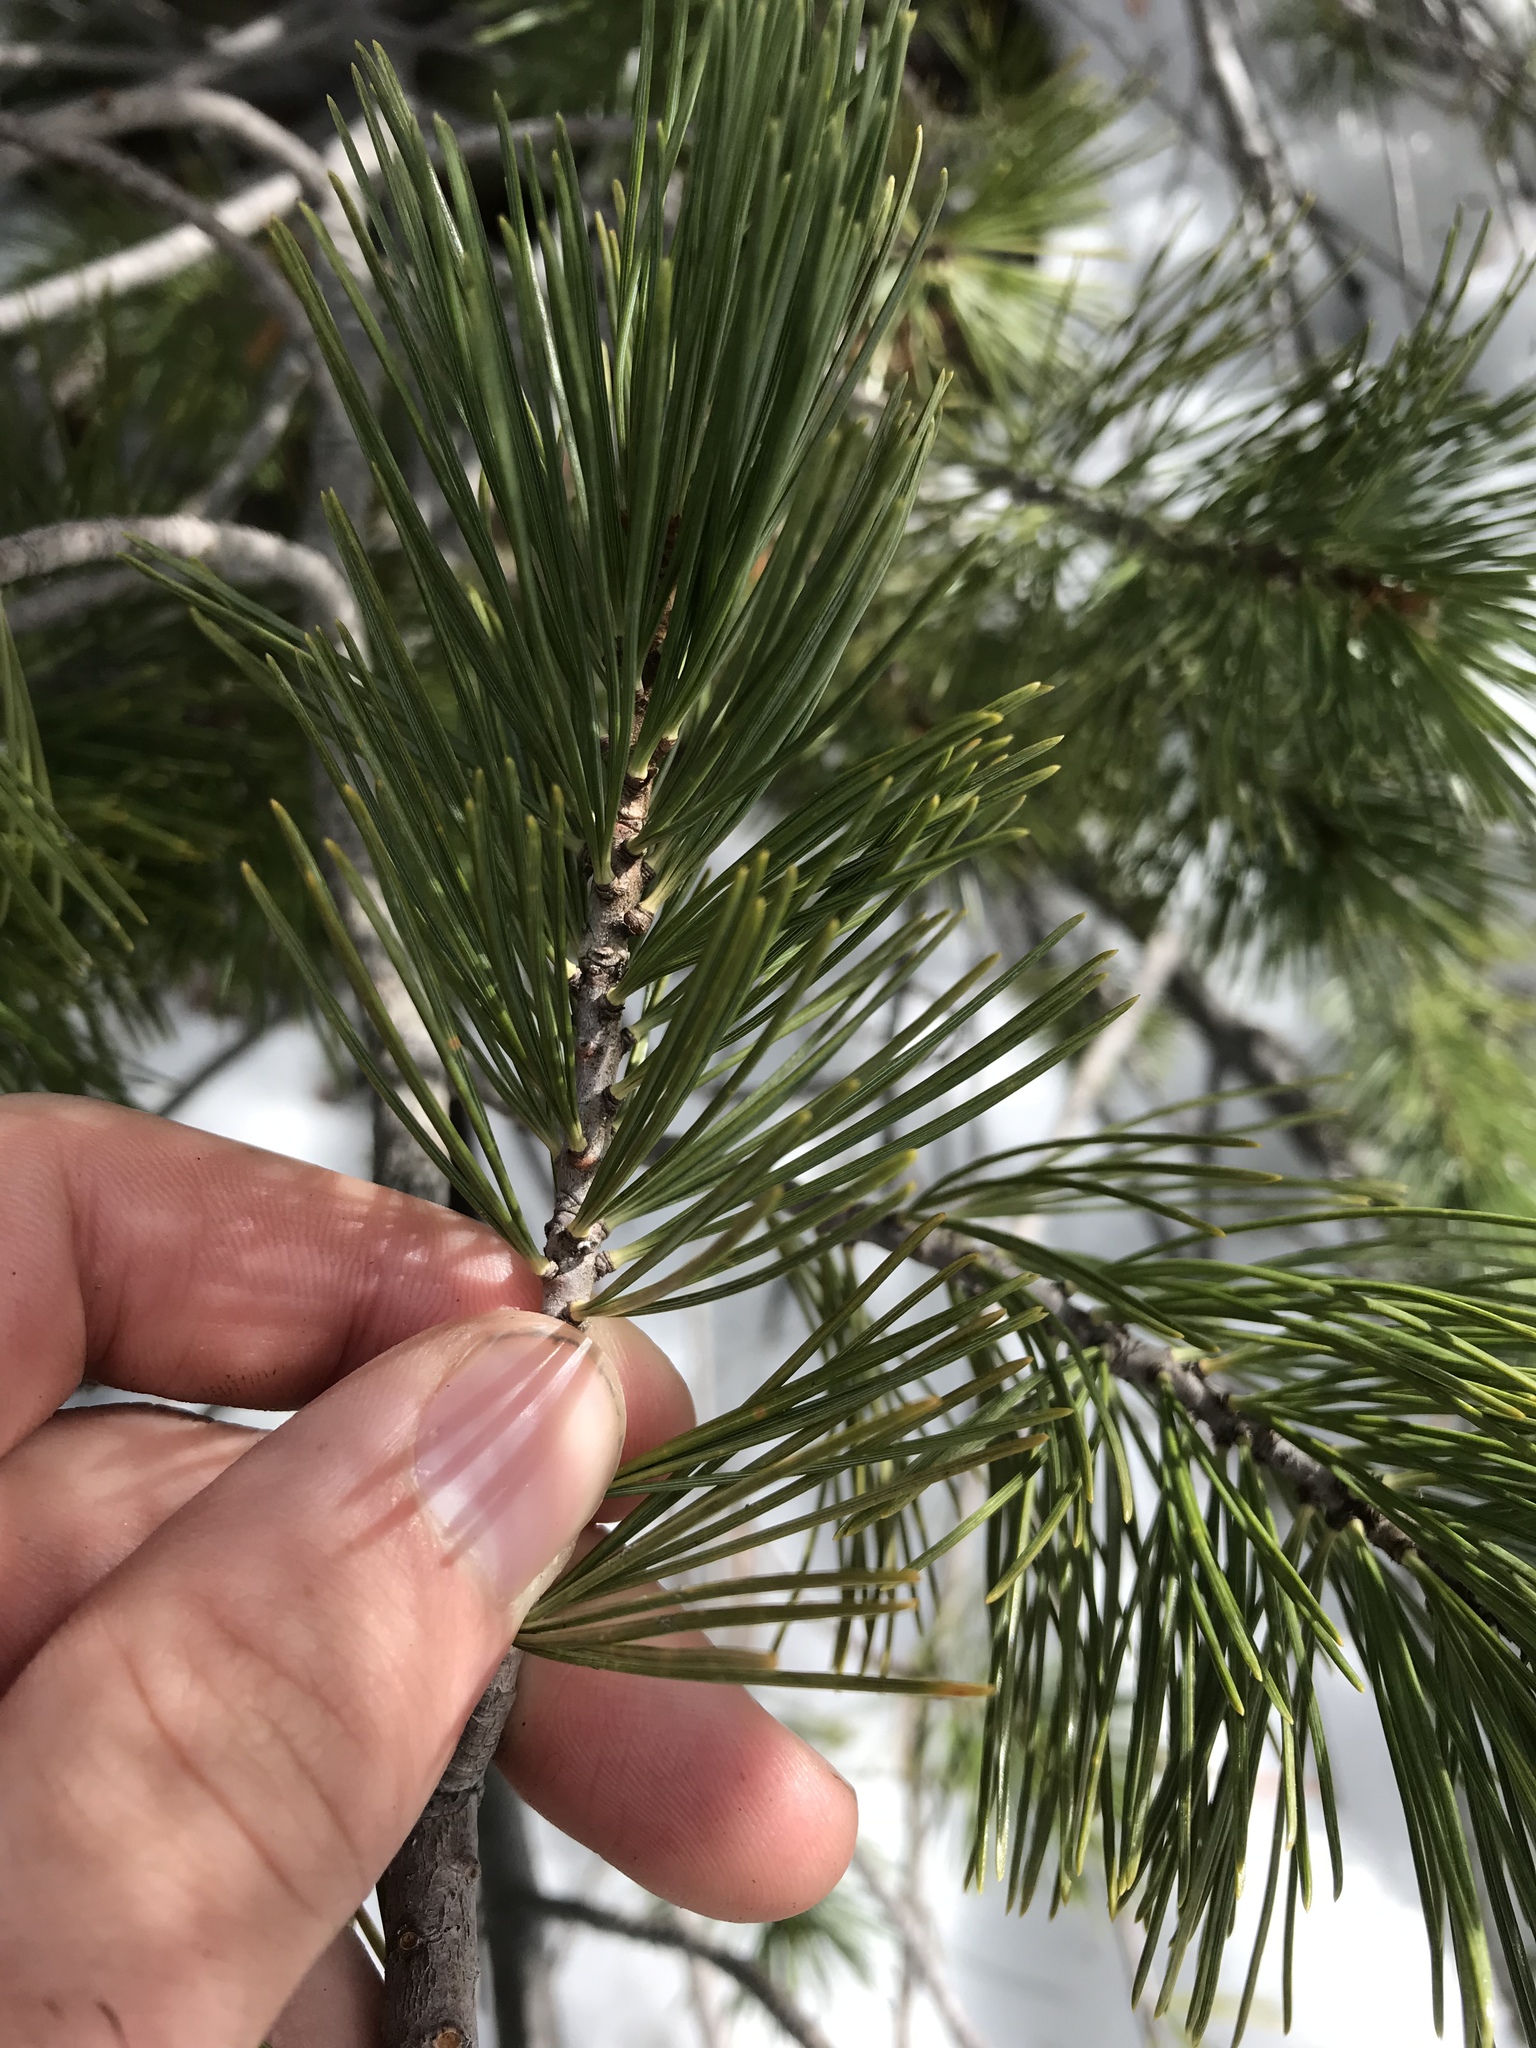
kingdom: Plantae
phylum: Tracheophyta
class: Pinopsida
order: Pinales
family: Pinaceae
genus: Pinus
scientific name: Pinus albicaulis
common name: Whitebark pine
